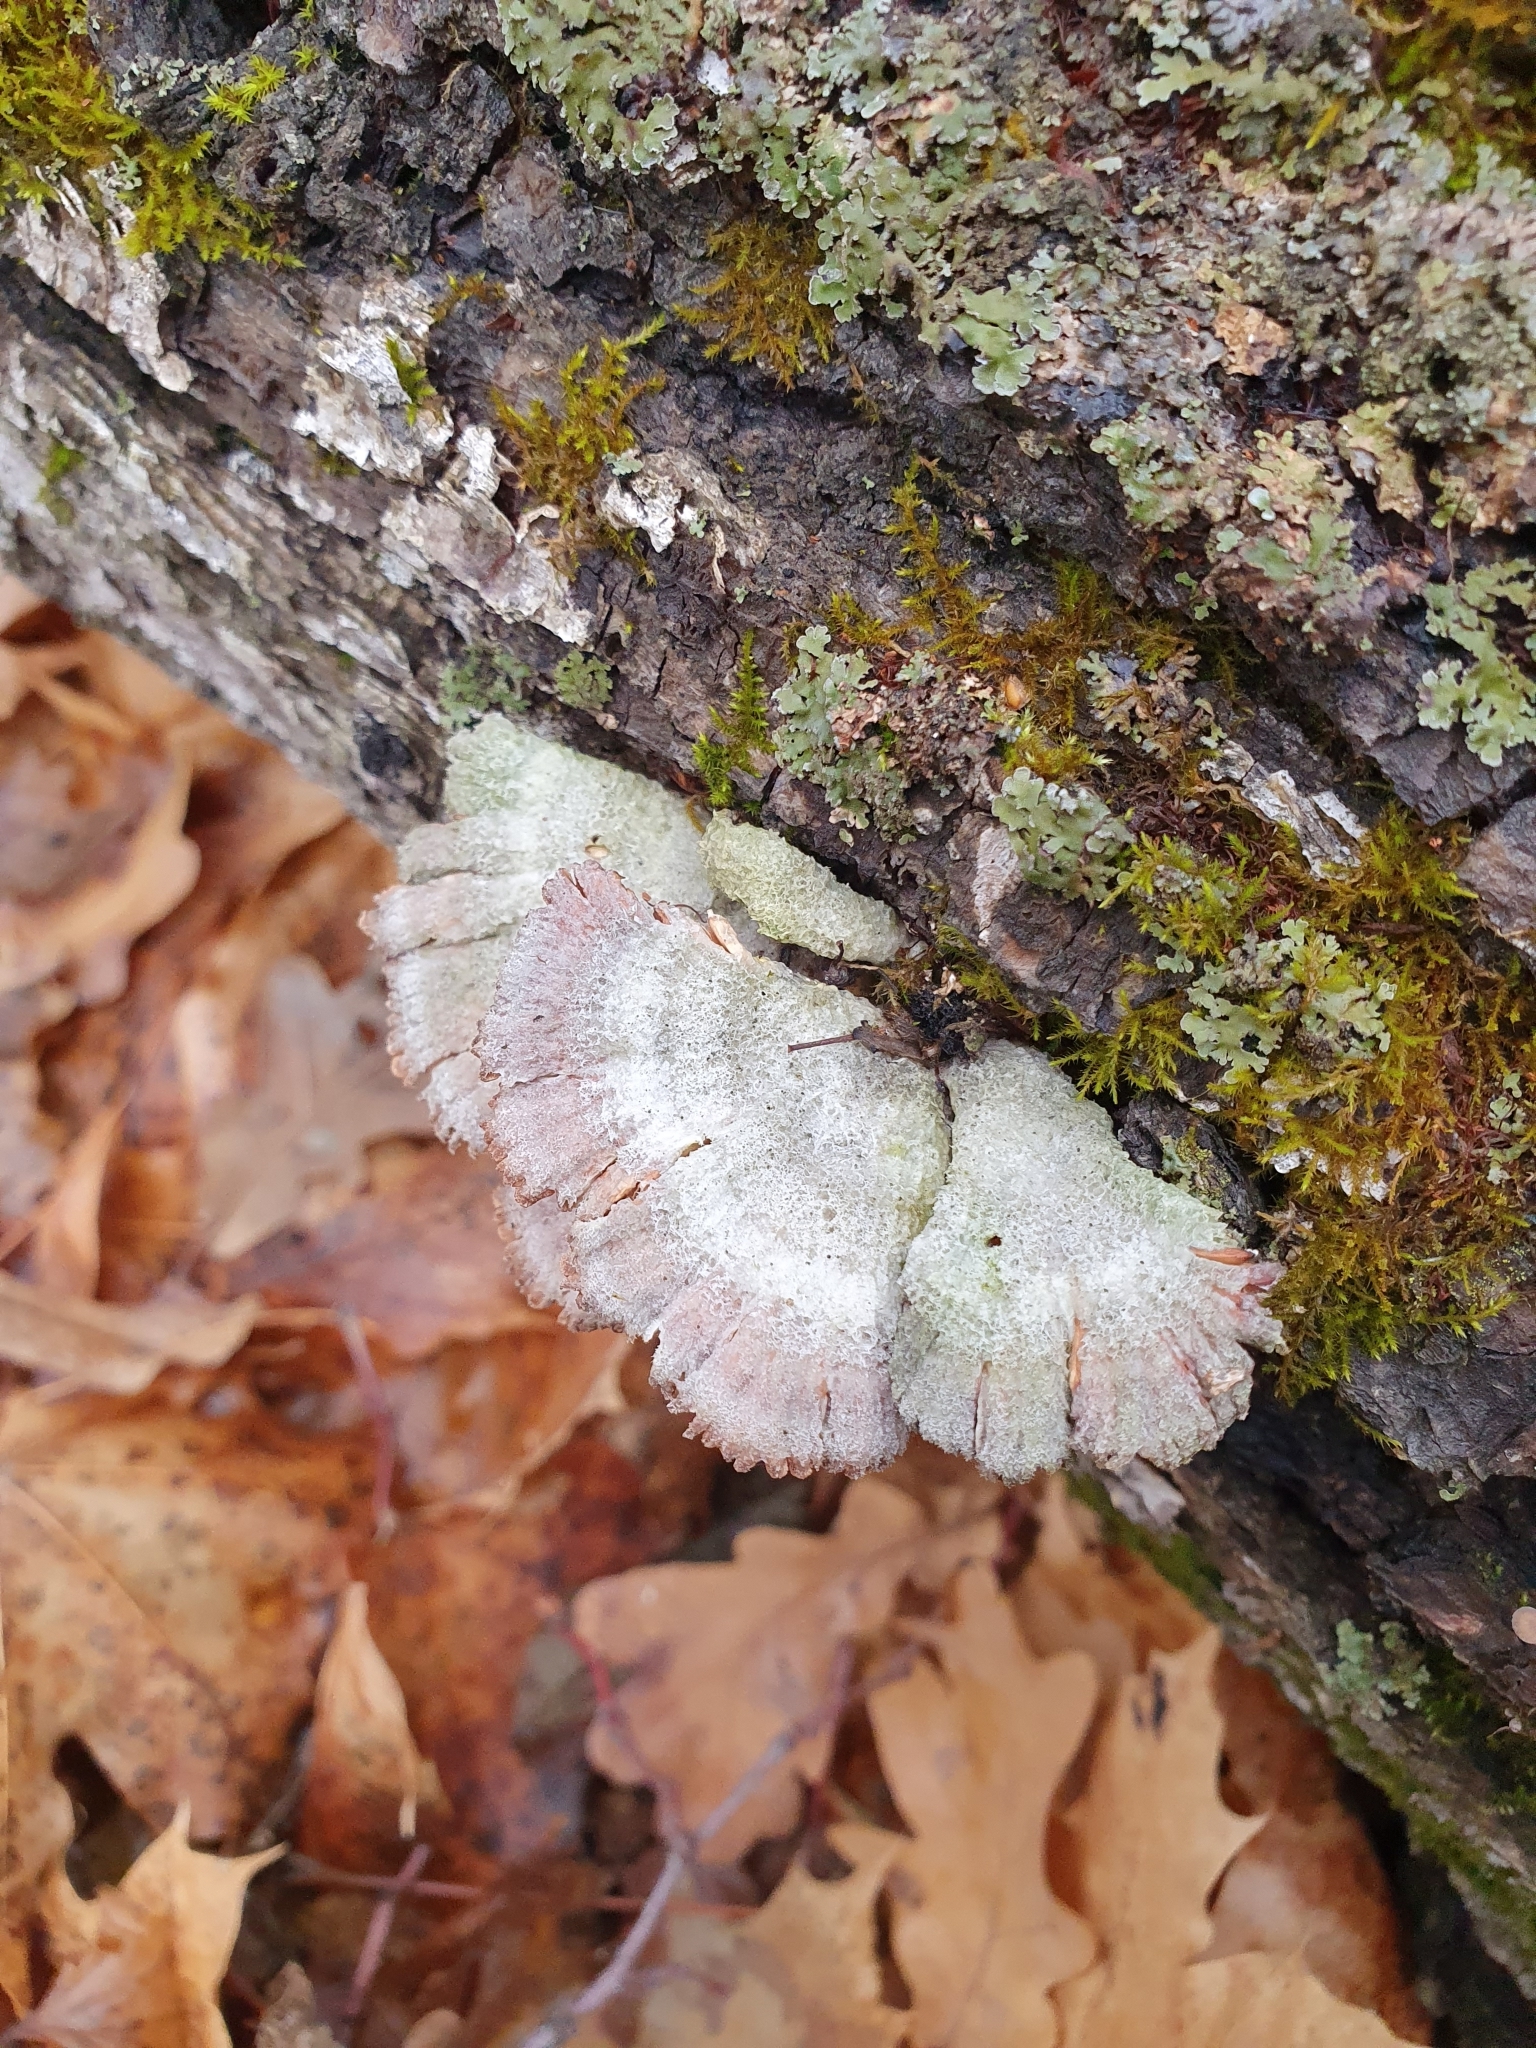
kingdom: Fungi
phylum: Basidiomycota
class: Agaricomycetes
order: Agaricales
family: Schizophyllaceae
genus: Schizophyllum
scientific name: Schizophyllum commune
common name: Common porecrust
